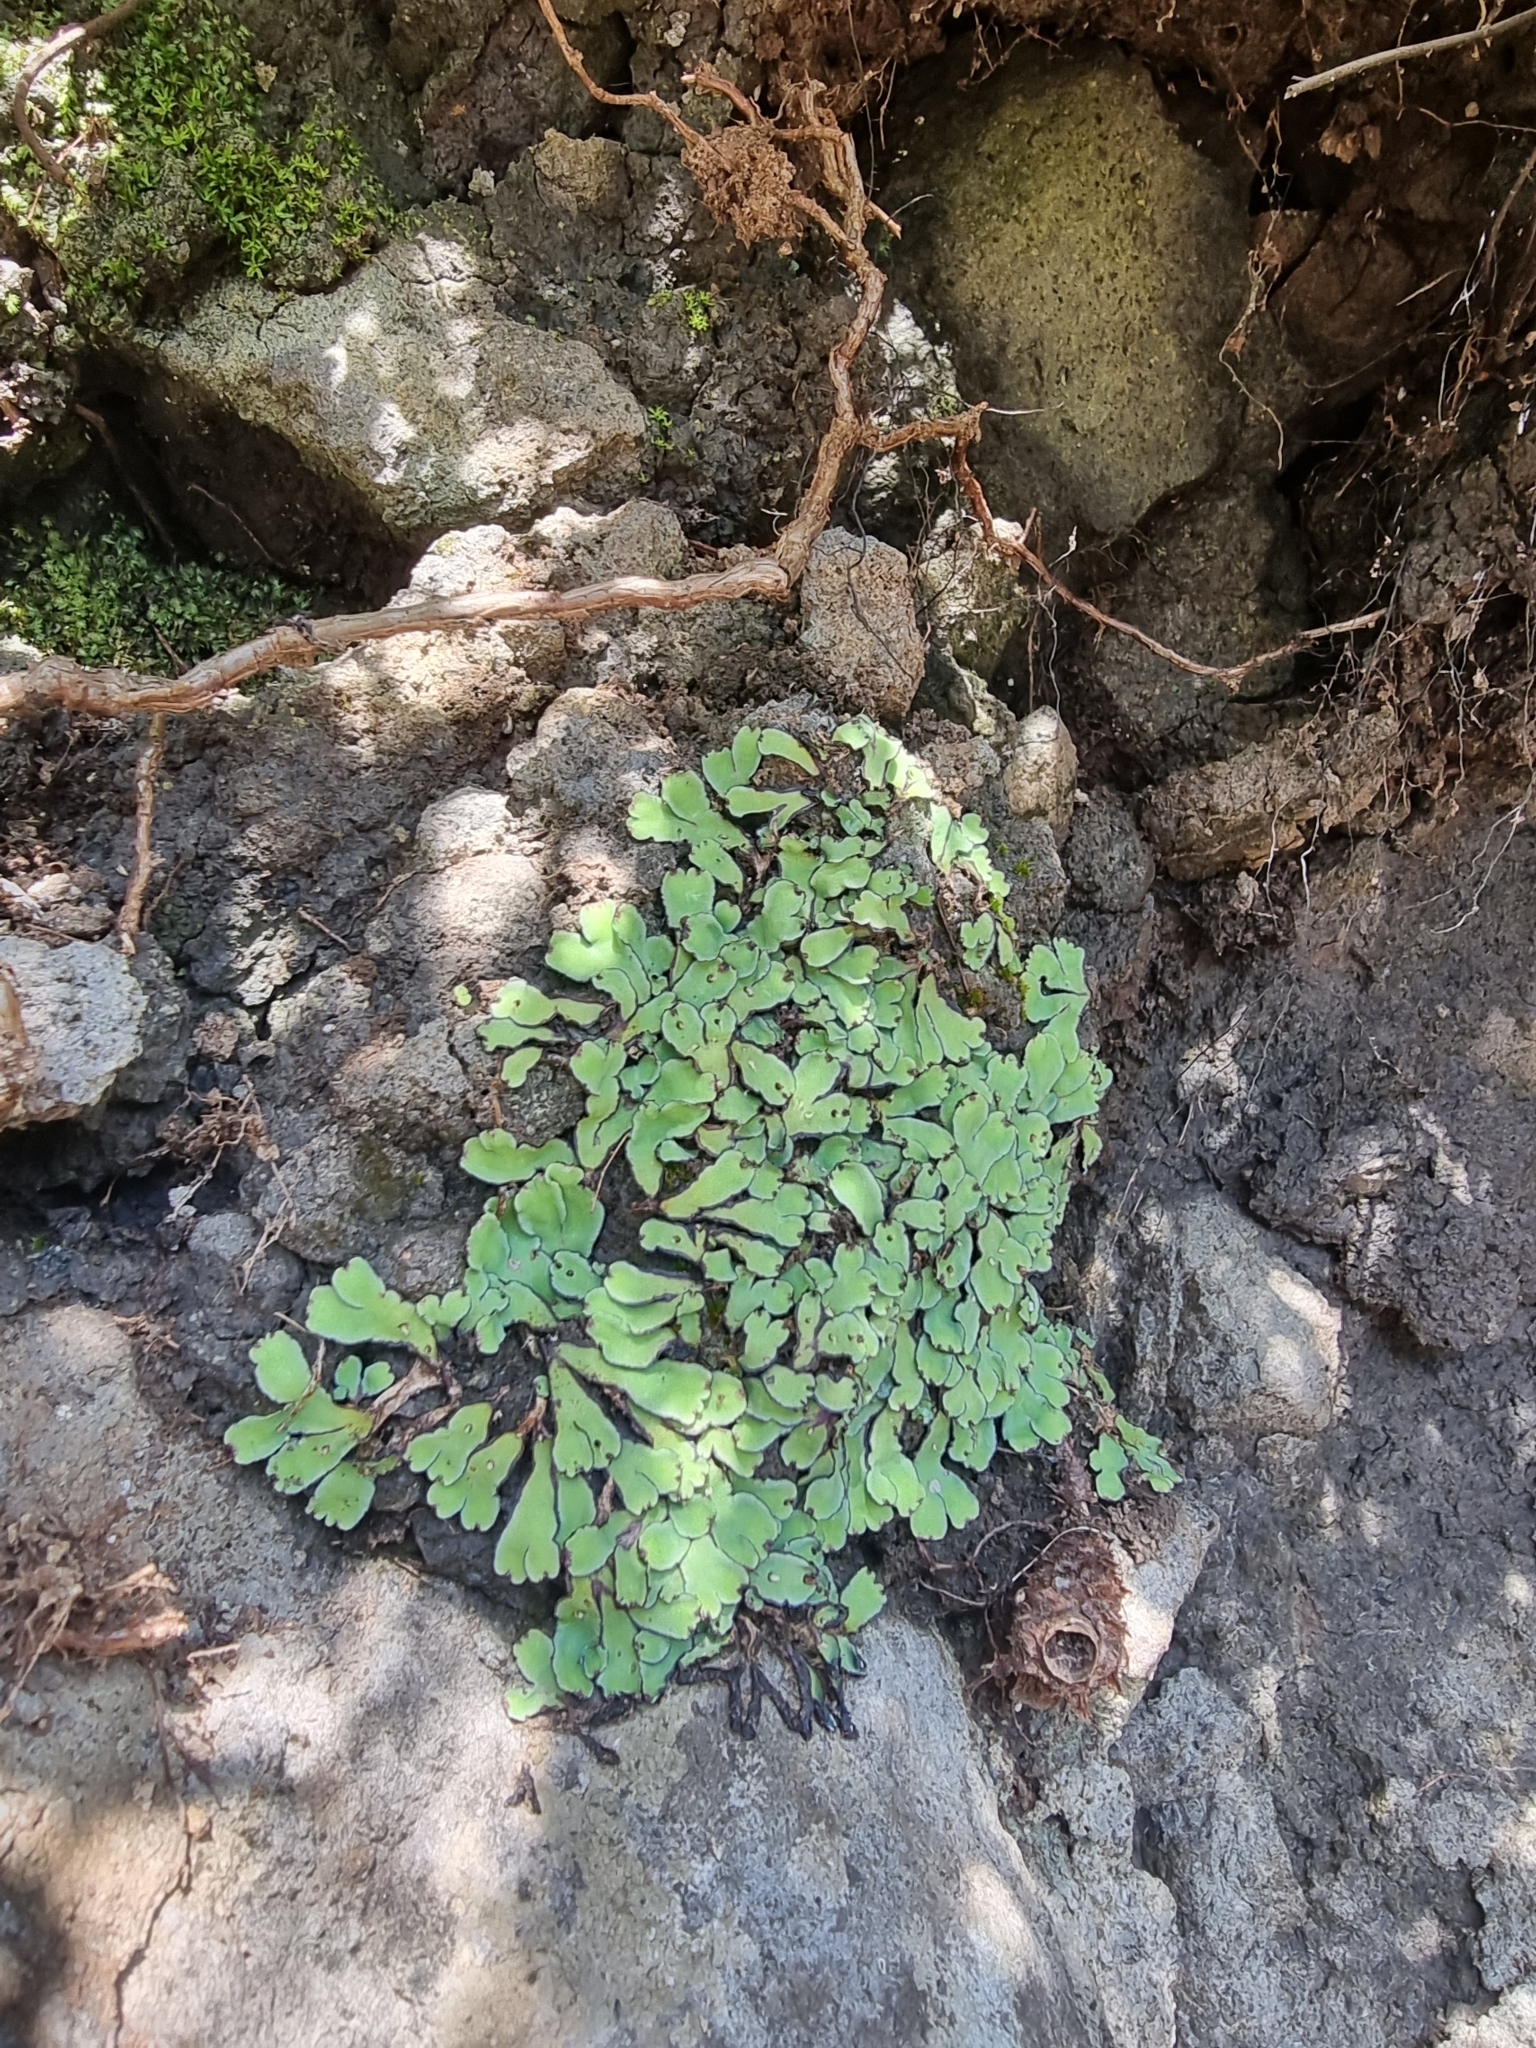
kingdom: Plantae
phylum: Marchantiophyta
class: Marchantiopsida
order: Marchantiales
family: Aytoniaceae
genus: Plagiochasma
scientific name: Plagiochasma rupestre
